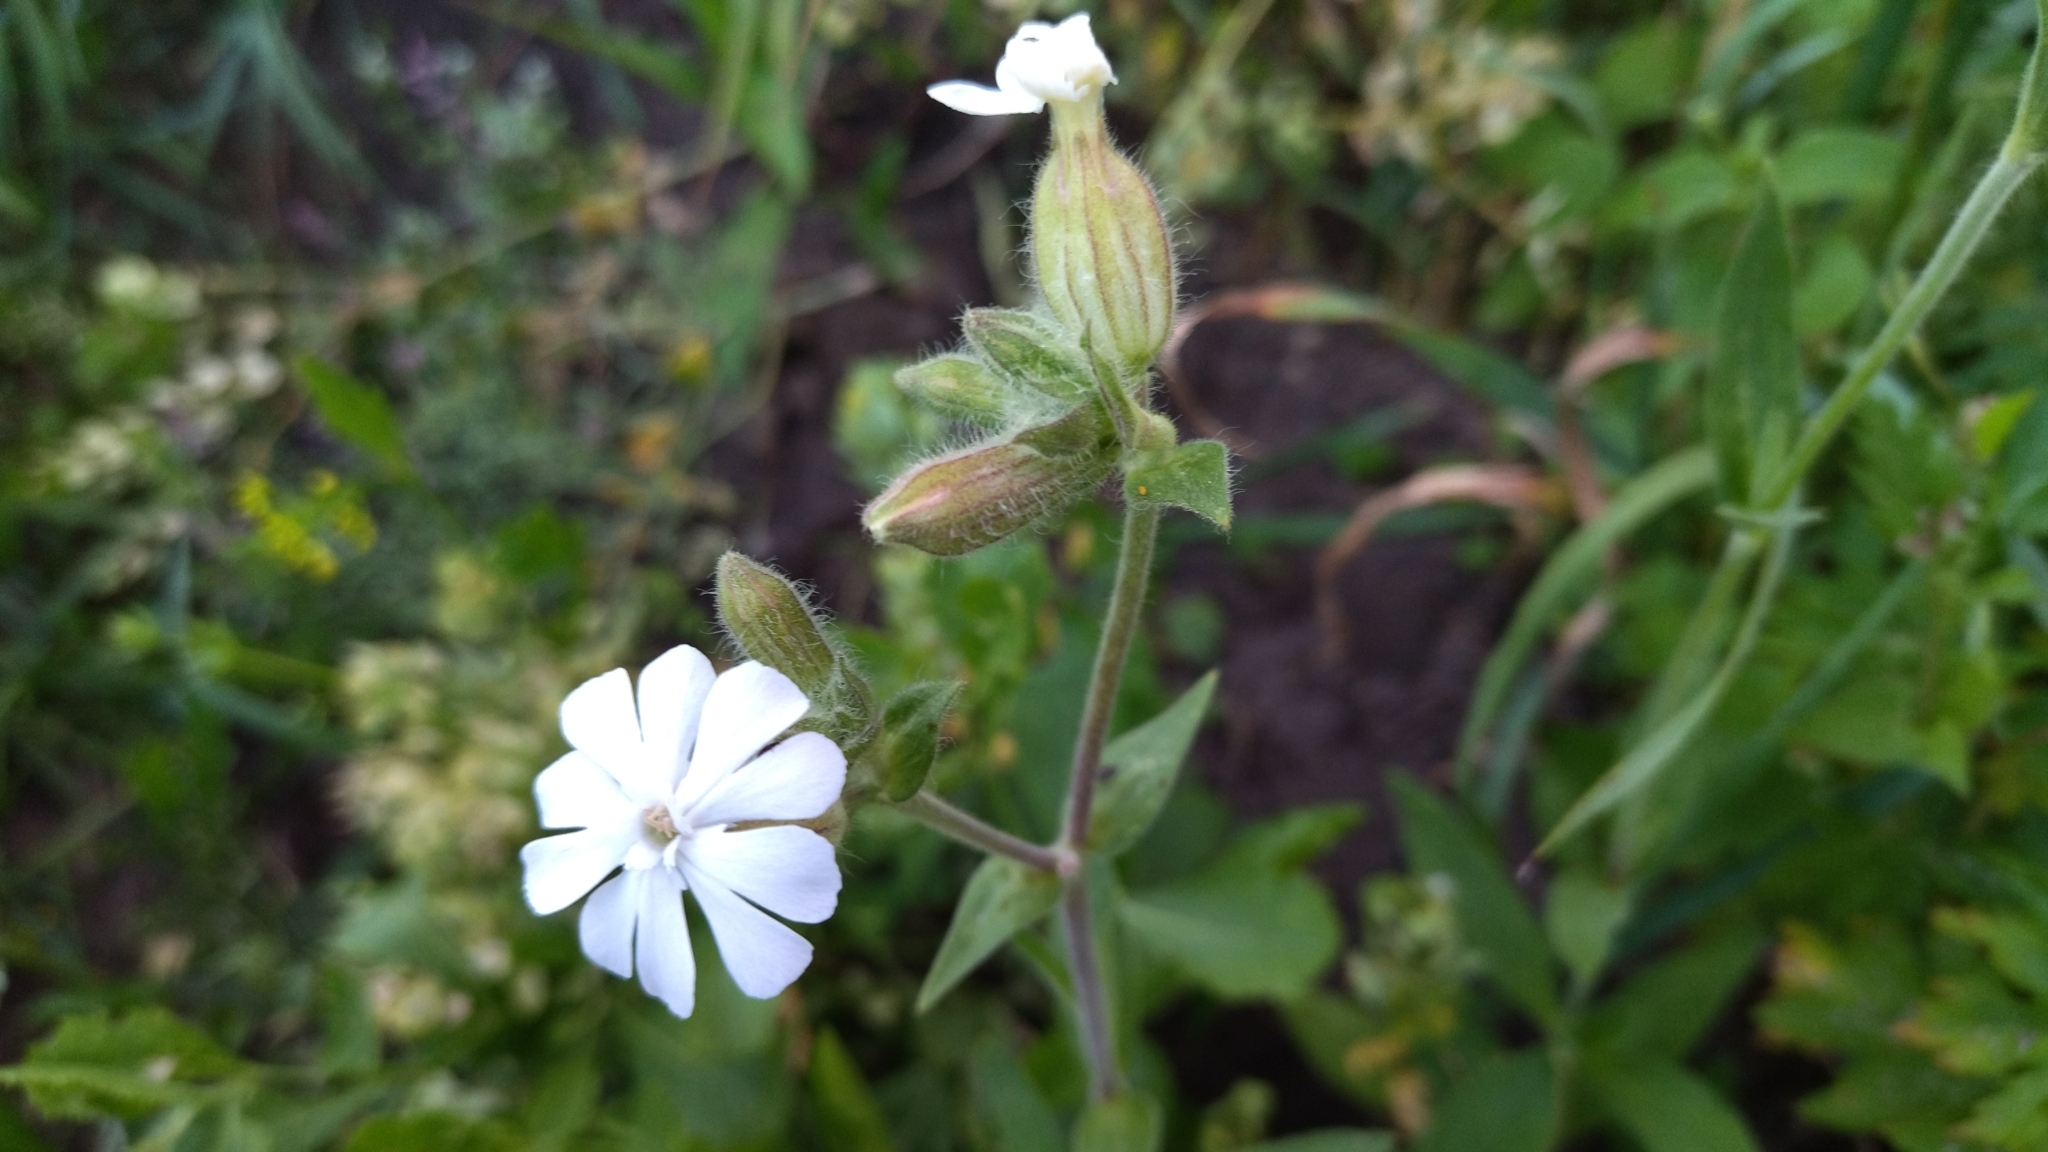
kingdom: Plantae
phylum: Tracheophyta
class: Magnoliopsida
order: Caryophyllales
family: Caryophyllaceae
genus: Silene
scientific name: Silene latifolia
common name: White campion
